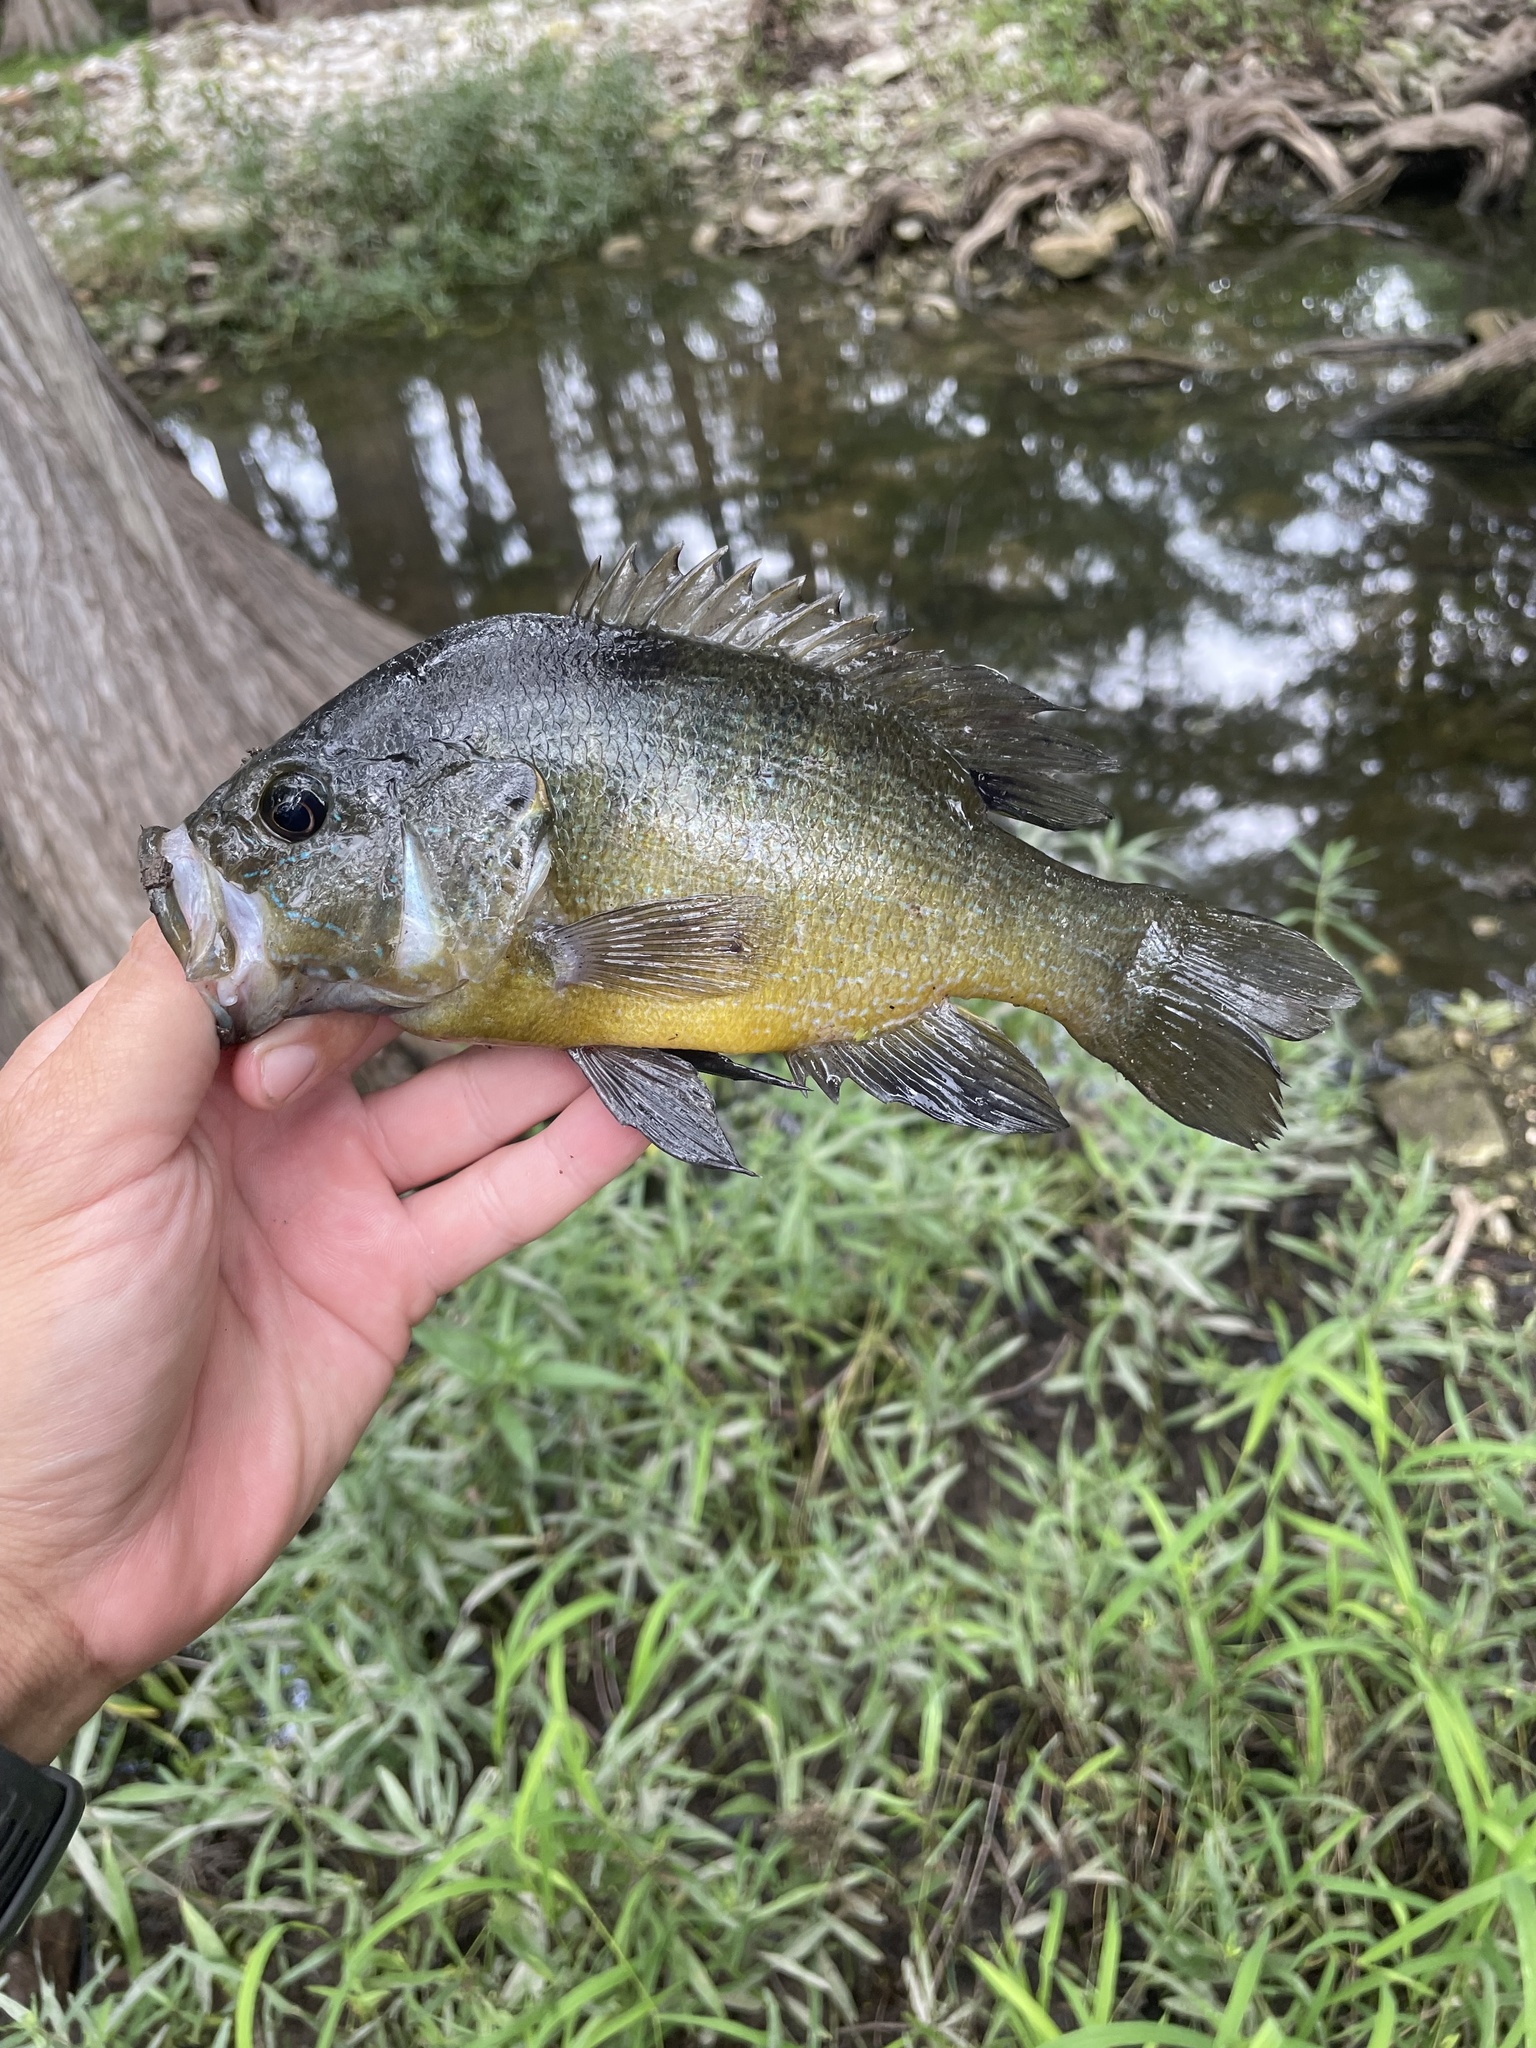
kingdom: Animalia
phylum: Chordata
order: Perciformes
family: Centrarchidae
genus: Lepomis
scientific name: Lepomis cyanellus
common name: Green sunfish
